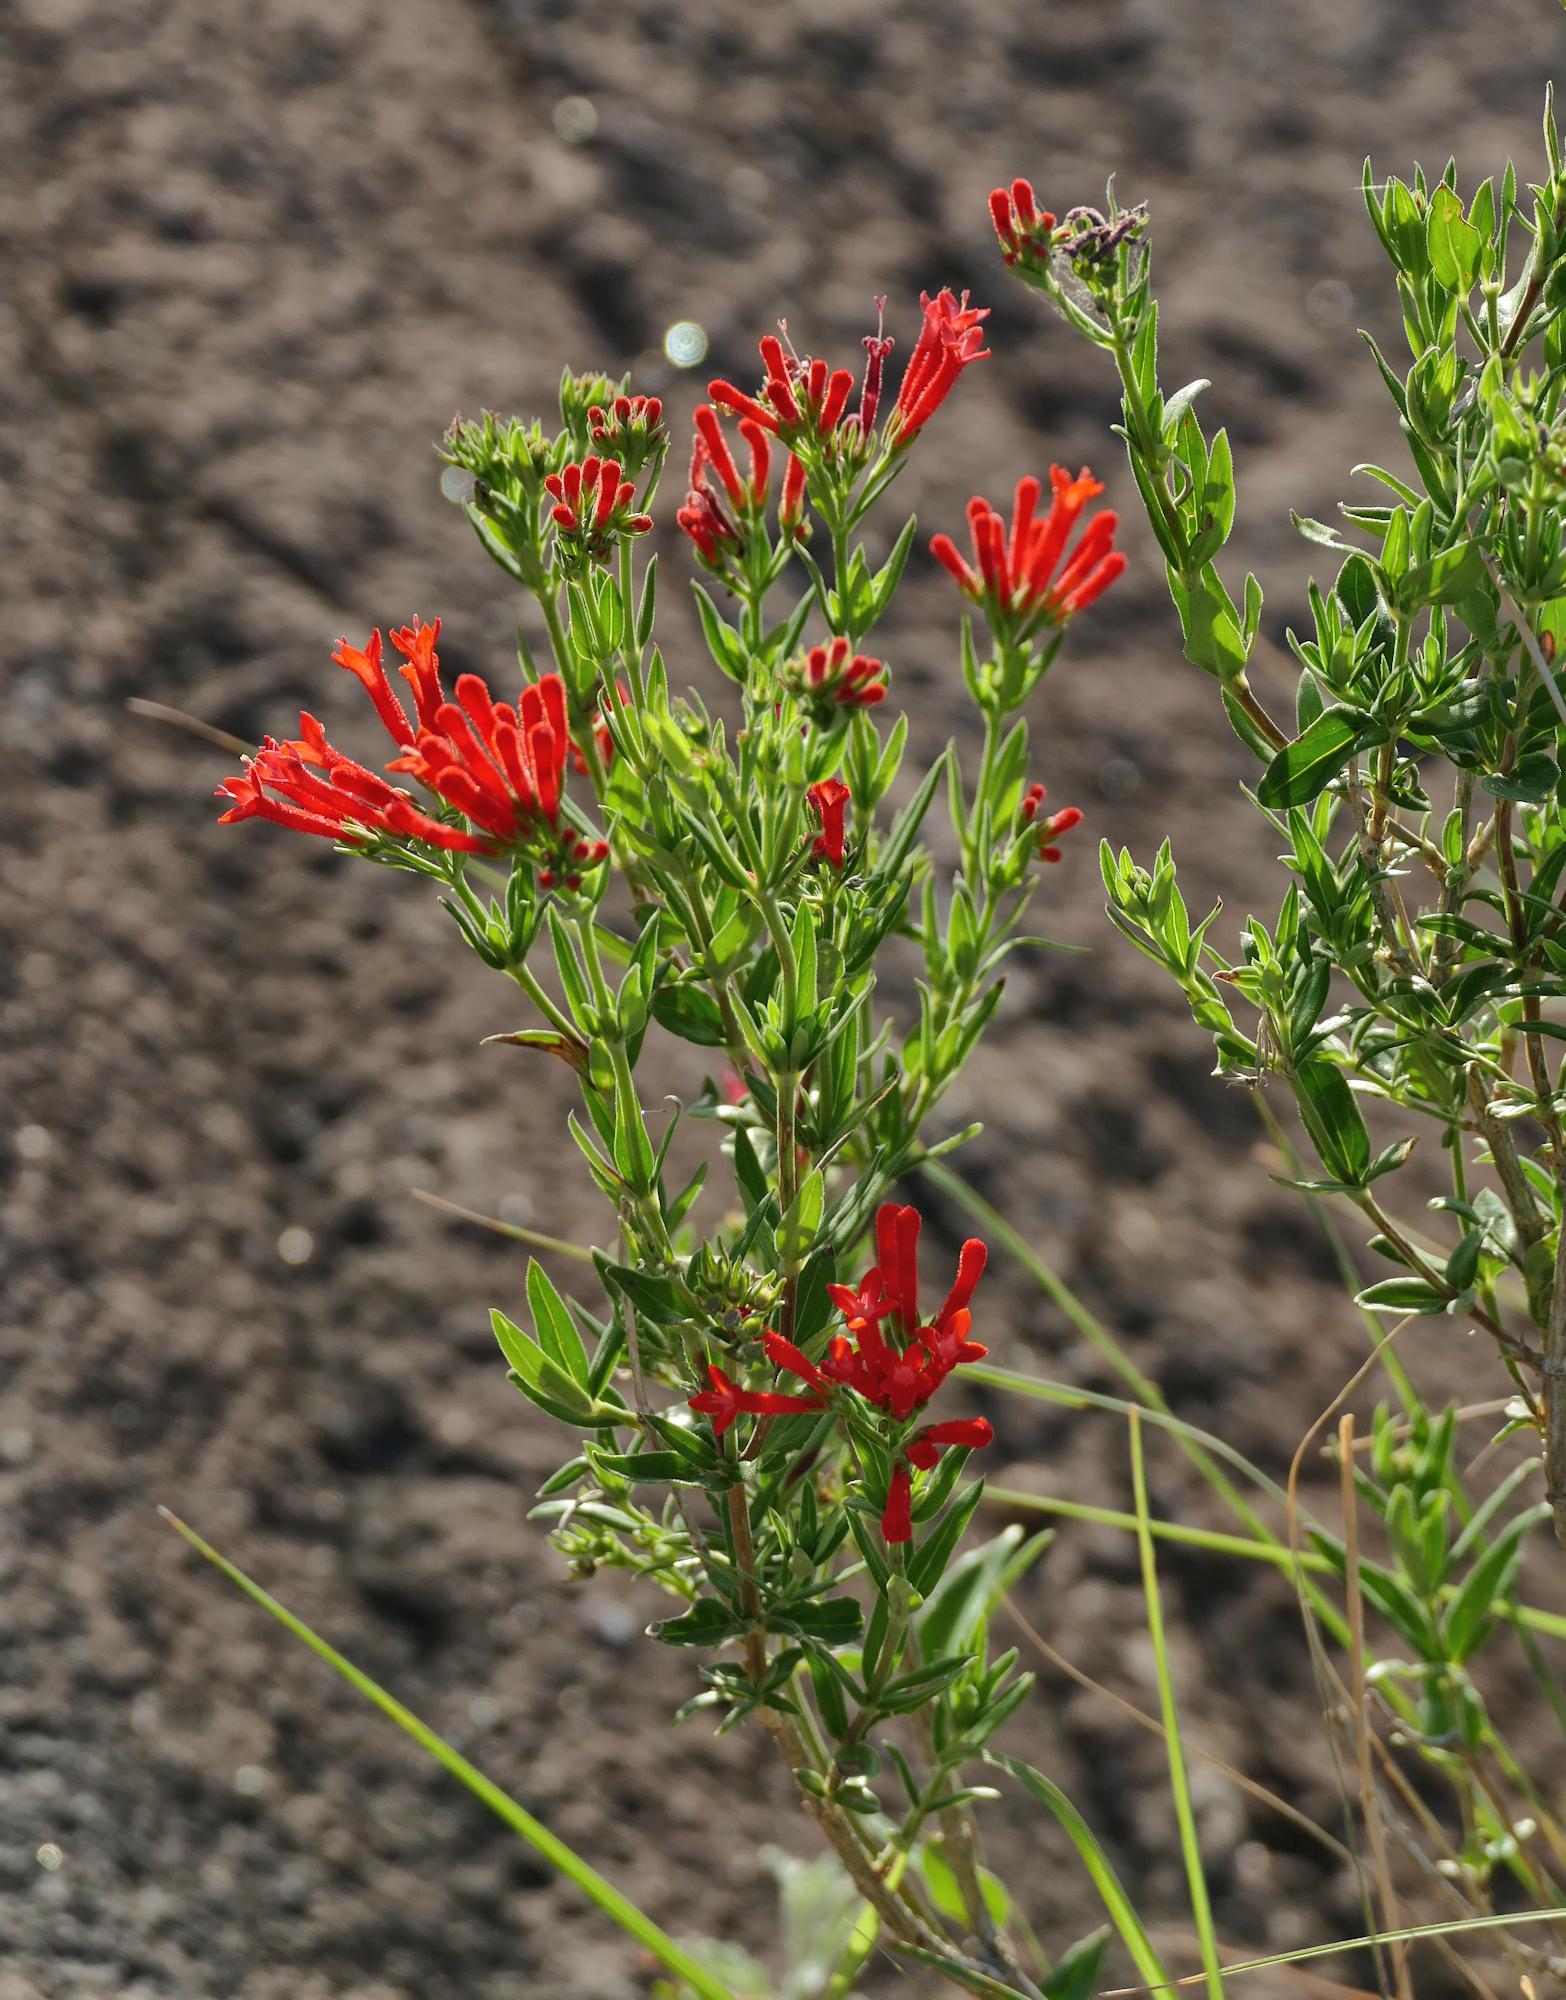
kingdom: Plantae
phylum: Tracheophyta
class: Magnoliopsida
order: Gentianales
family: Rubiaceae
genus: Bouvardia
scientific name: Bouvardia ternifolia
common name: Scarlet bouvardia
